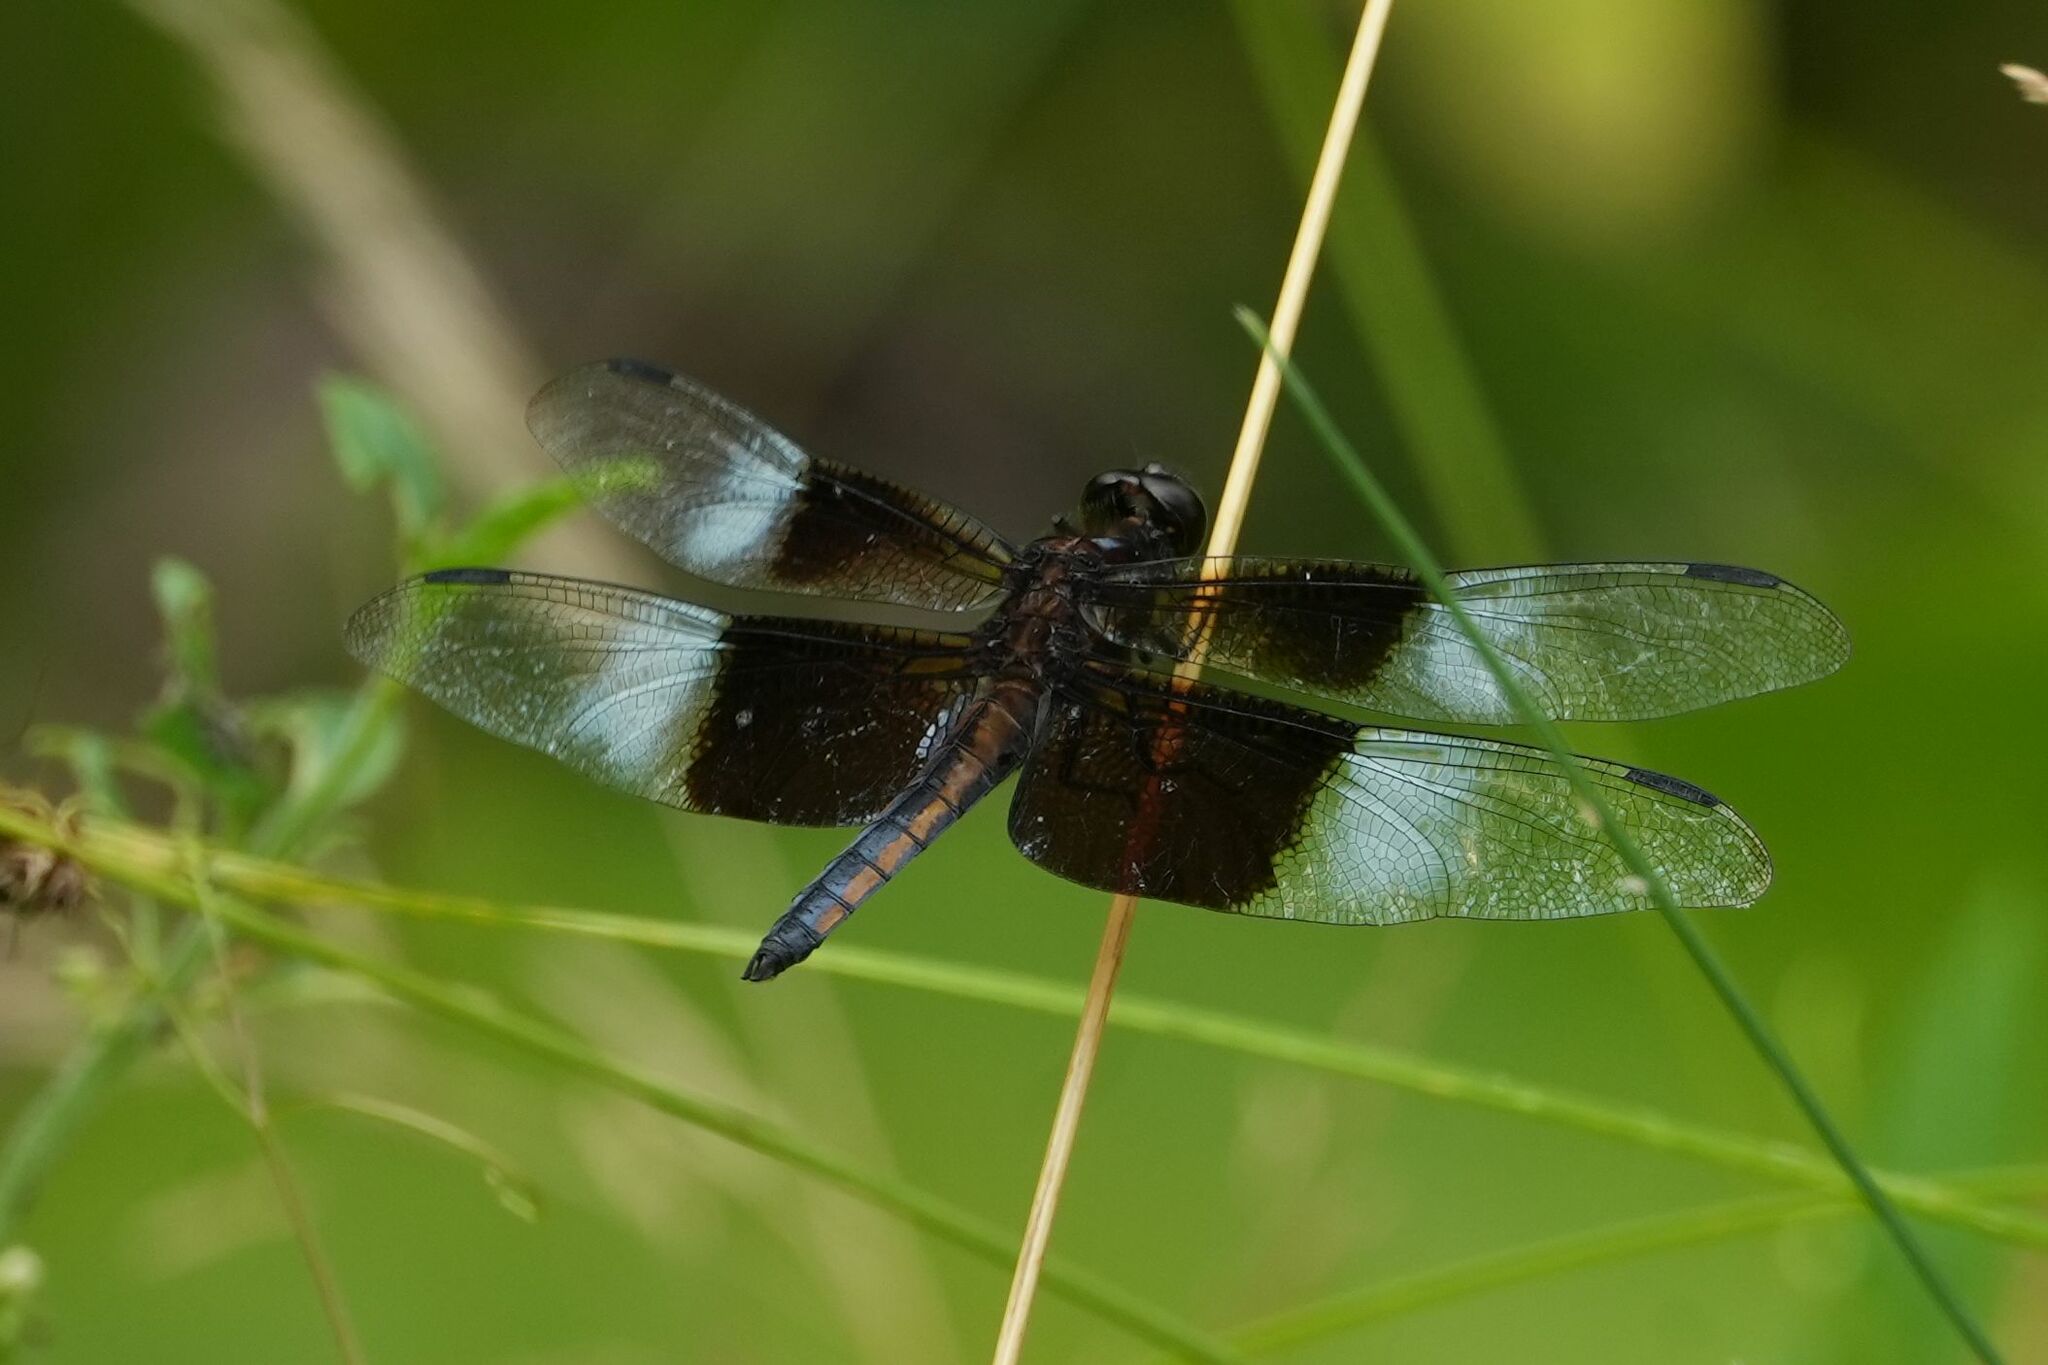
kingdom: Animalia
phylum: Arthropoda
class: Insecta
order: Odonata
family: Libellulidae
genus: Libellula
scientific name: Libellula luctuosa
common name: Widow skimmer
